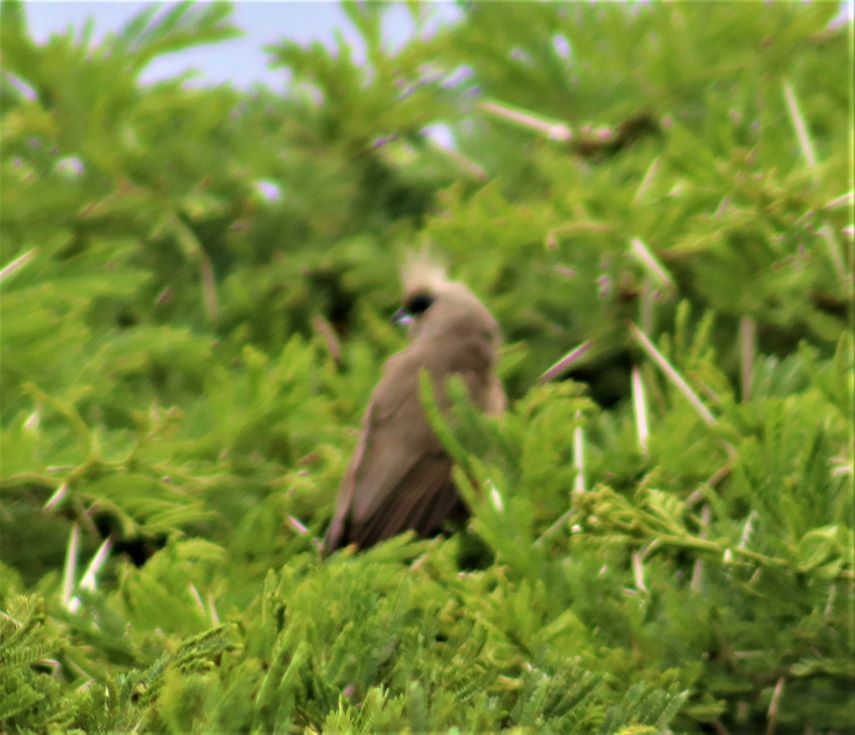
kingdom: Animalia
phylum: Chordata
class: Aves
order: Coliiformes
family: Coliidae
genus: Colius
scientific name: Colius striatus
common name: Speckled mousebird
